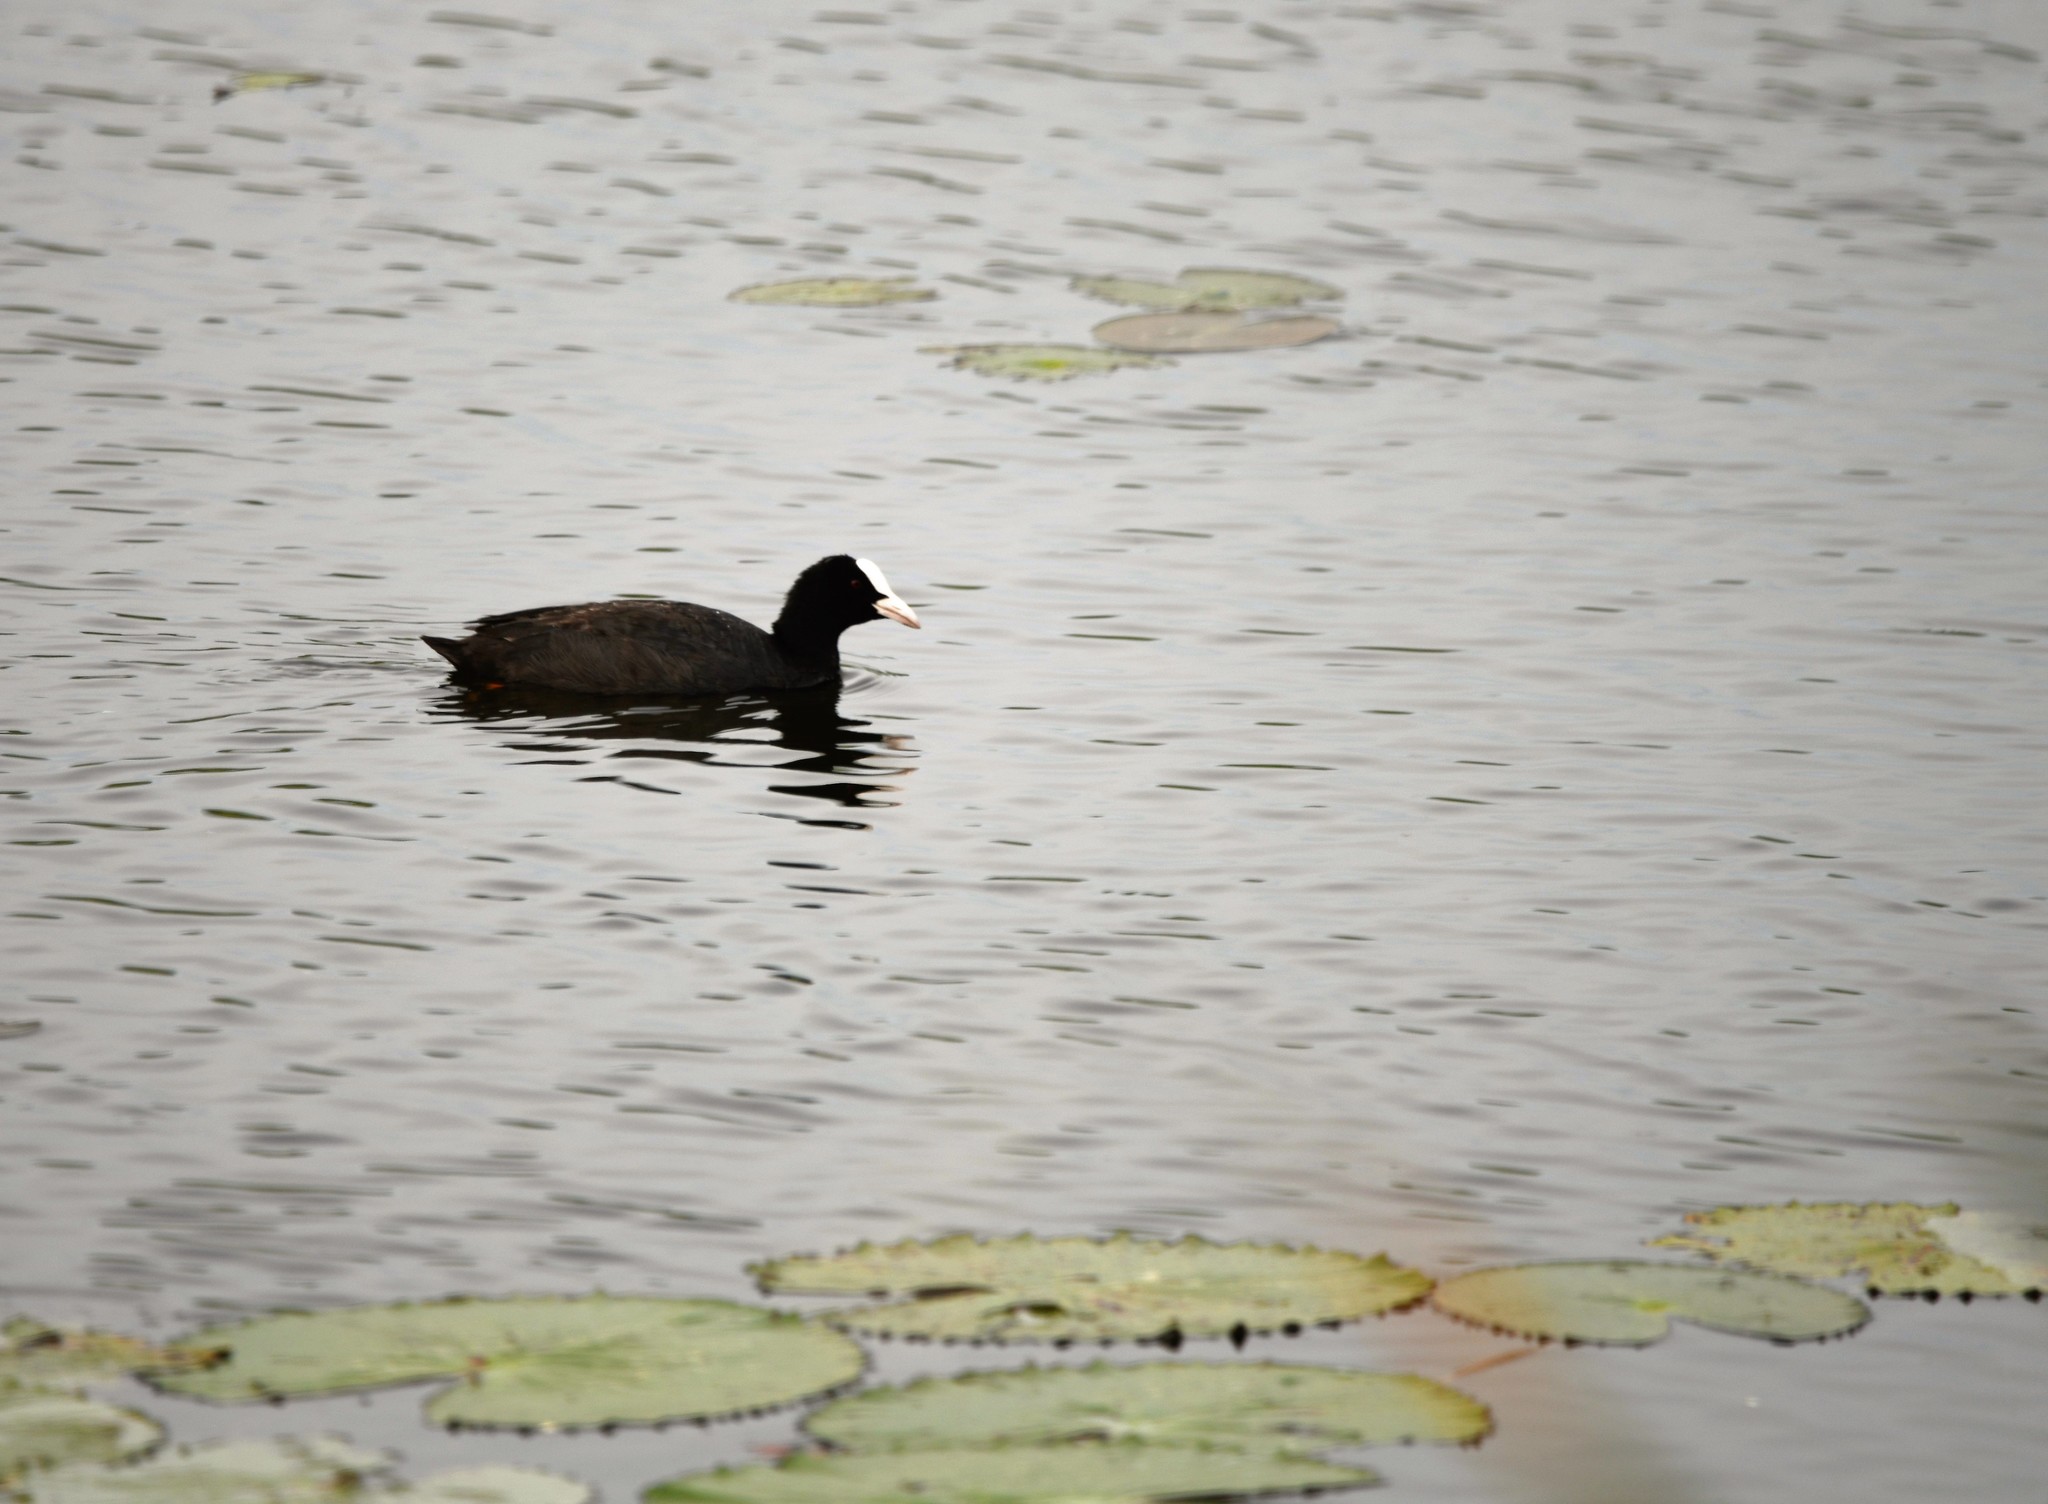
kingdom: Animalia
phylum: Chordata
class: Aves
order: Gruiformes
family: Rallidae
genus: Fulica
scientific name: Fulica atra
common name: Eurasian coot
